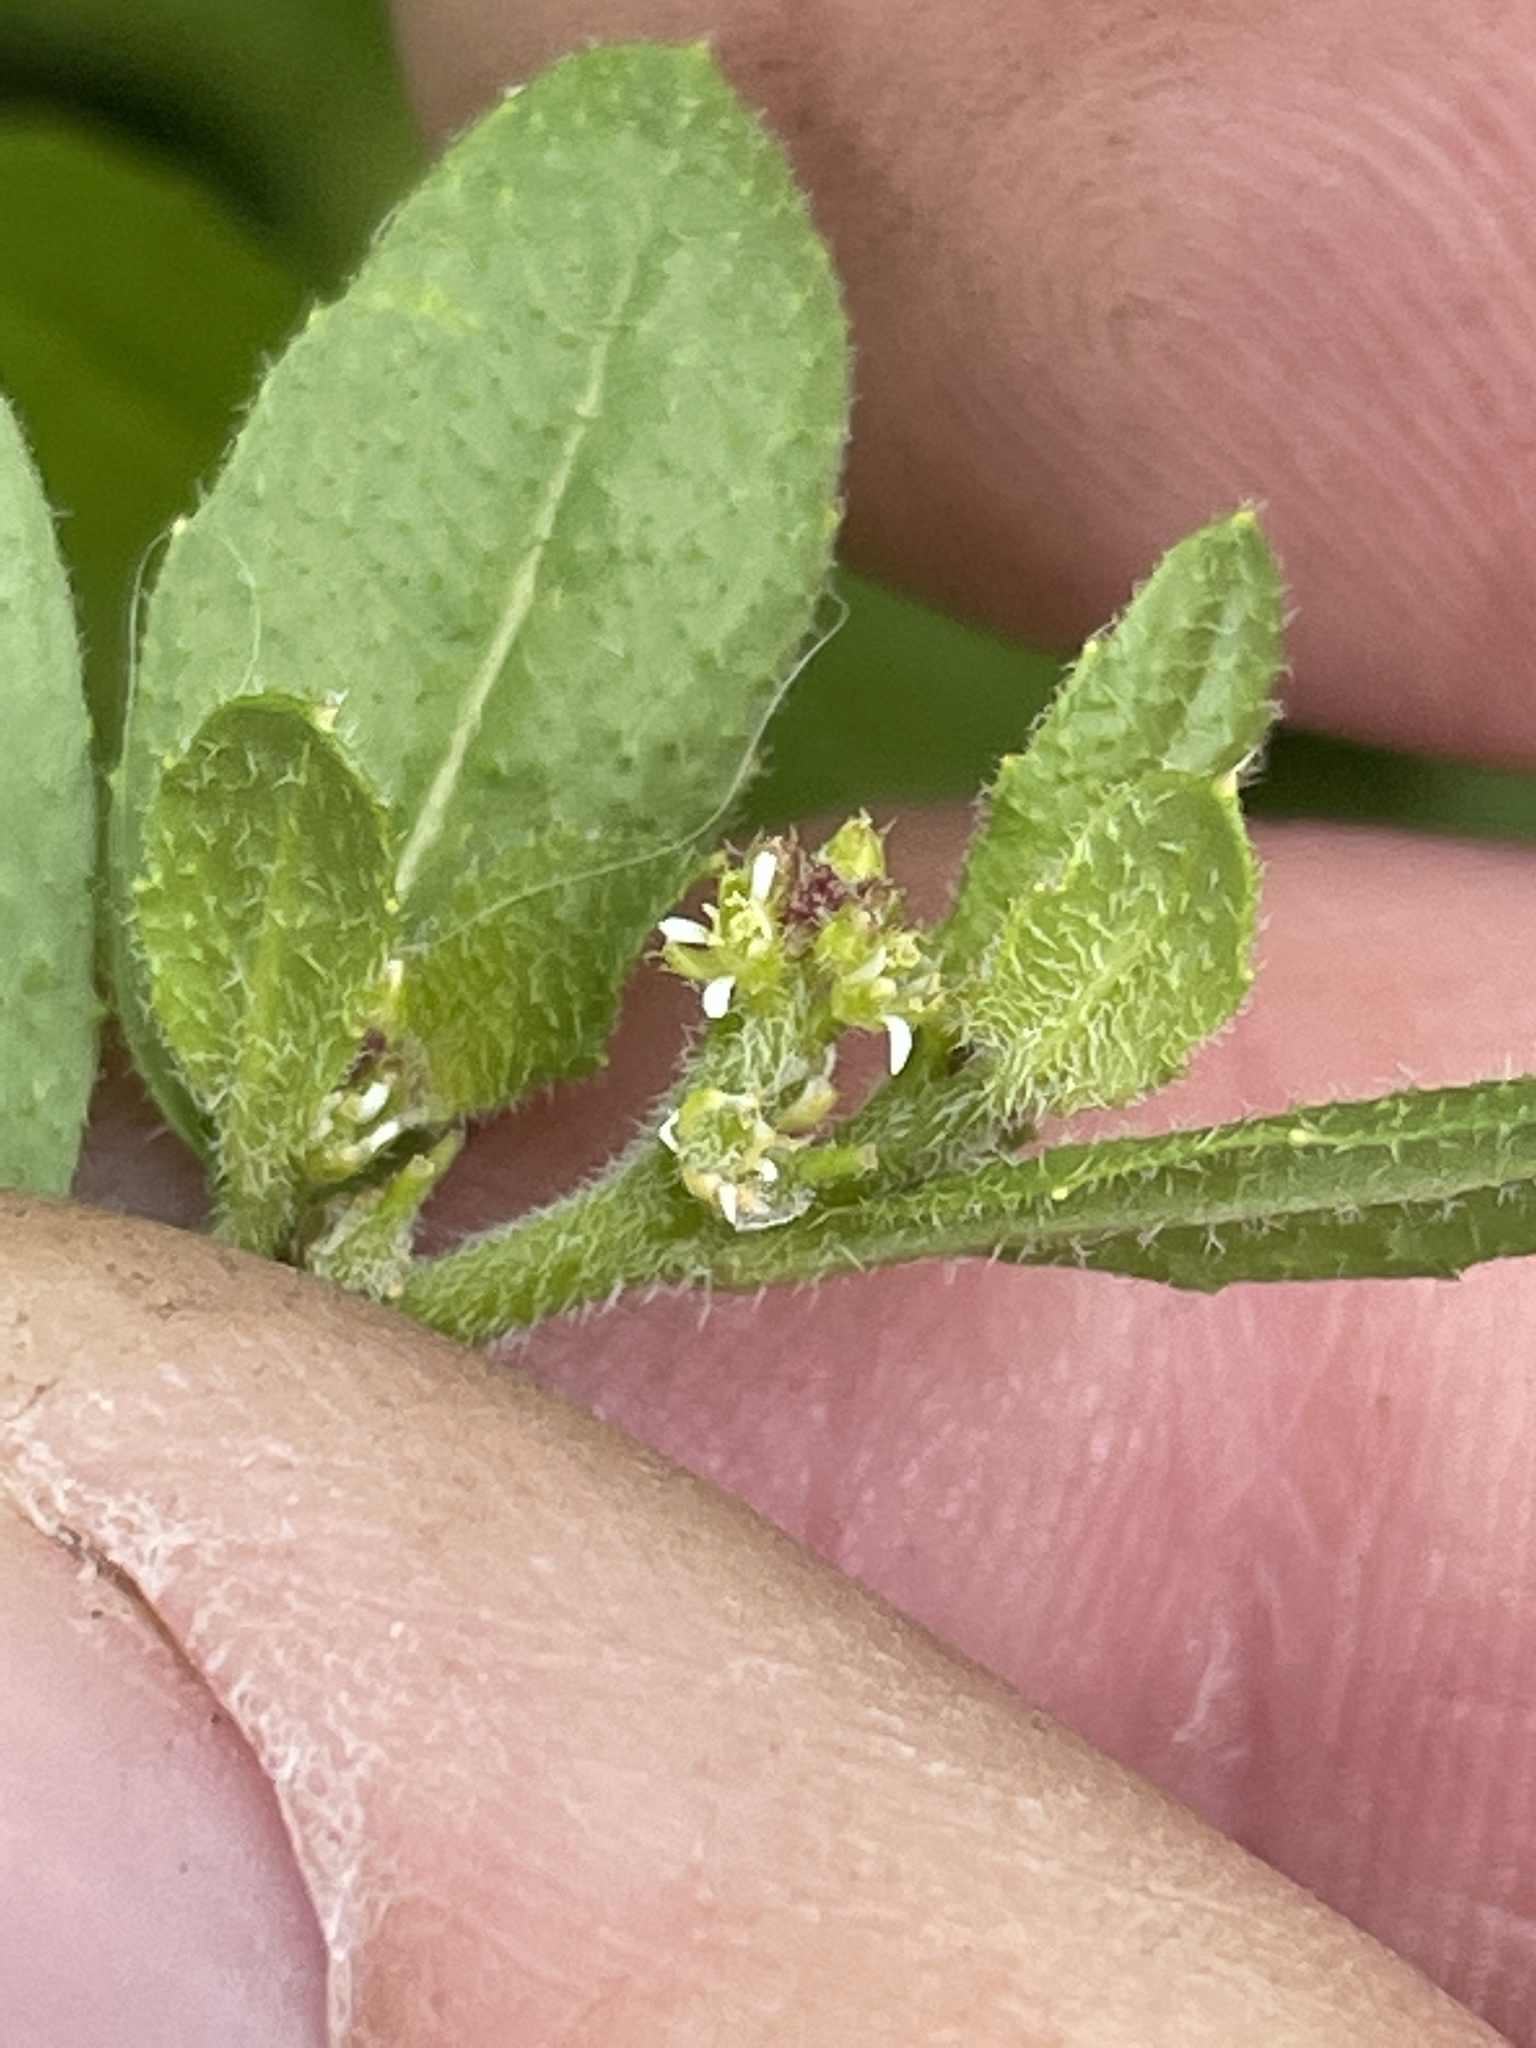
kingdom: Plantae
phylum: Tracheophyta
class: Magnoliopsida
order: Brassicales
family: Brassicaceae
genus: Euclidium
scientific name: Euclidium syriacum
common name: Syrian mustard
